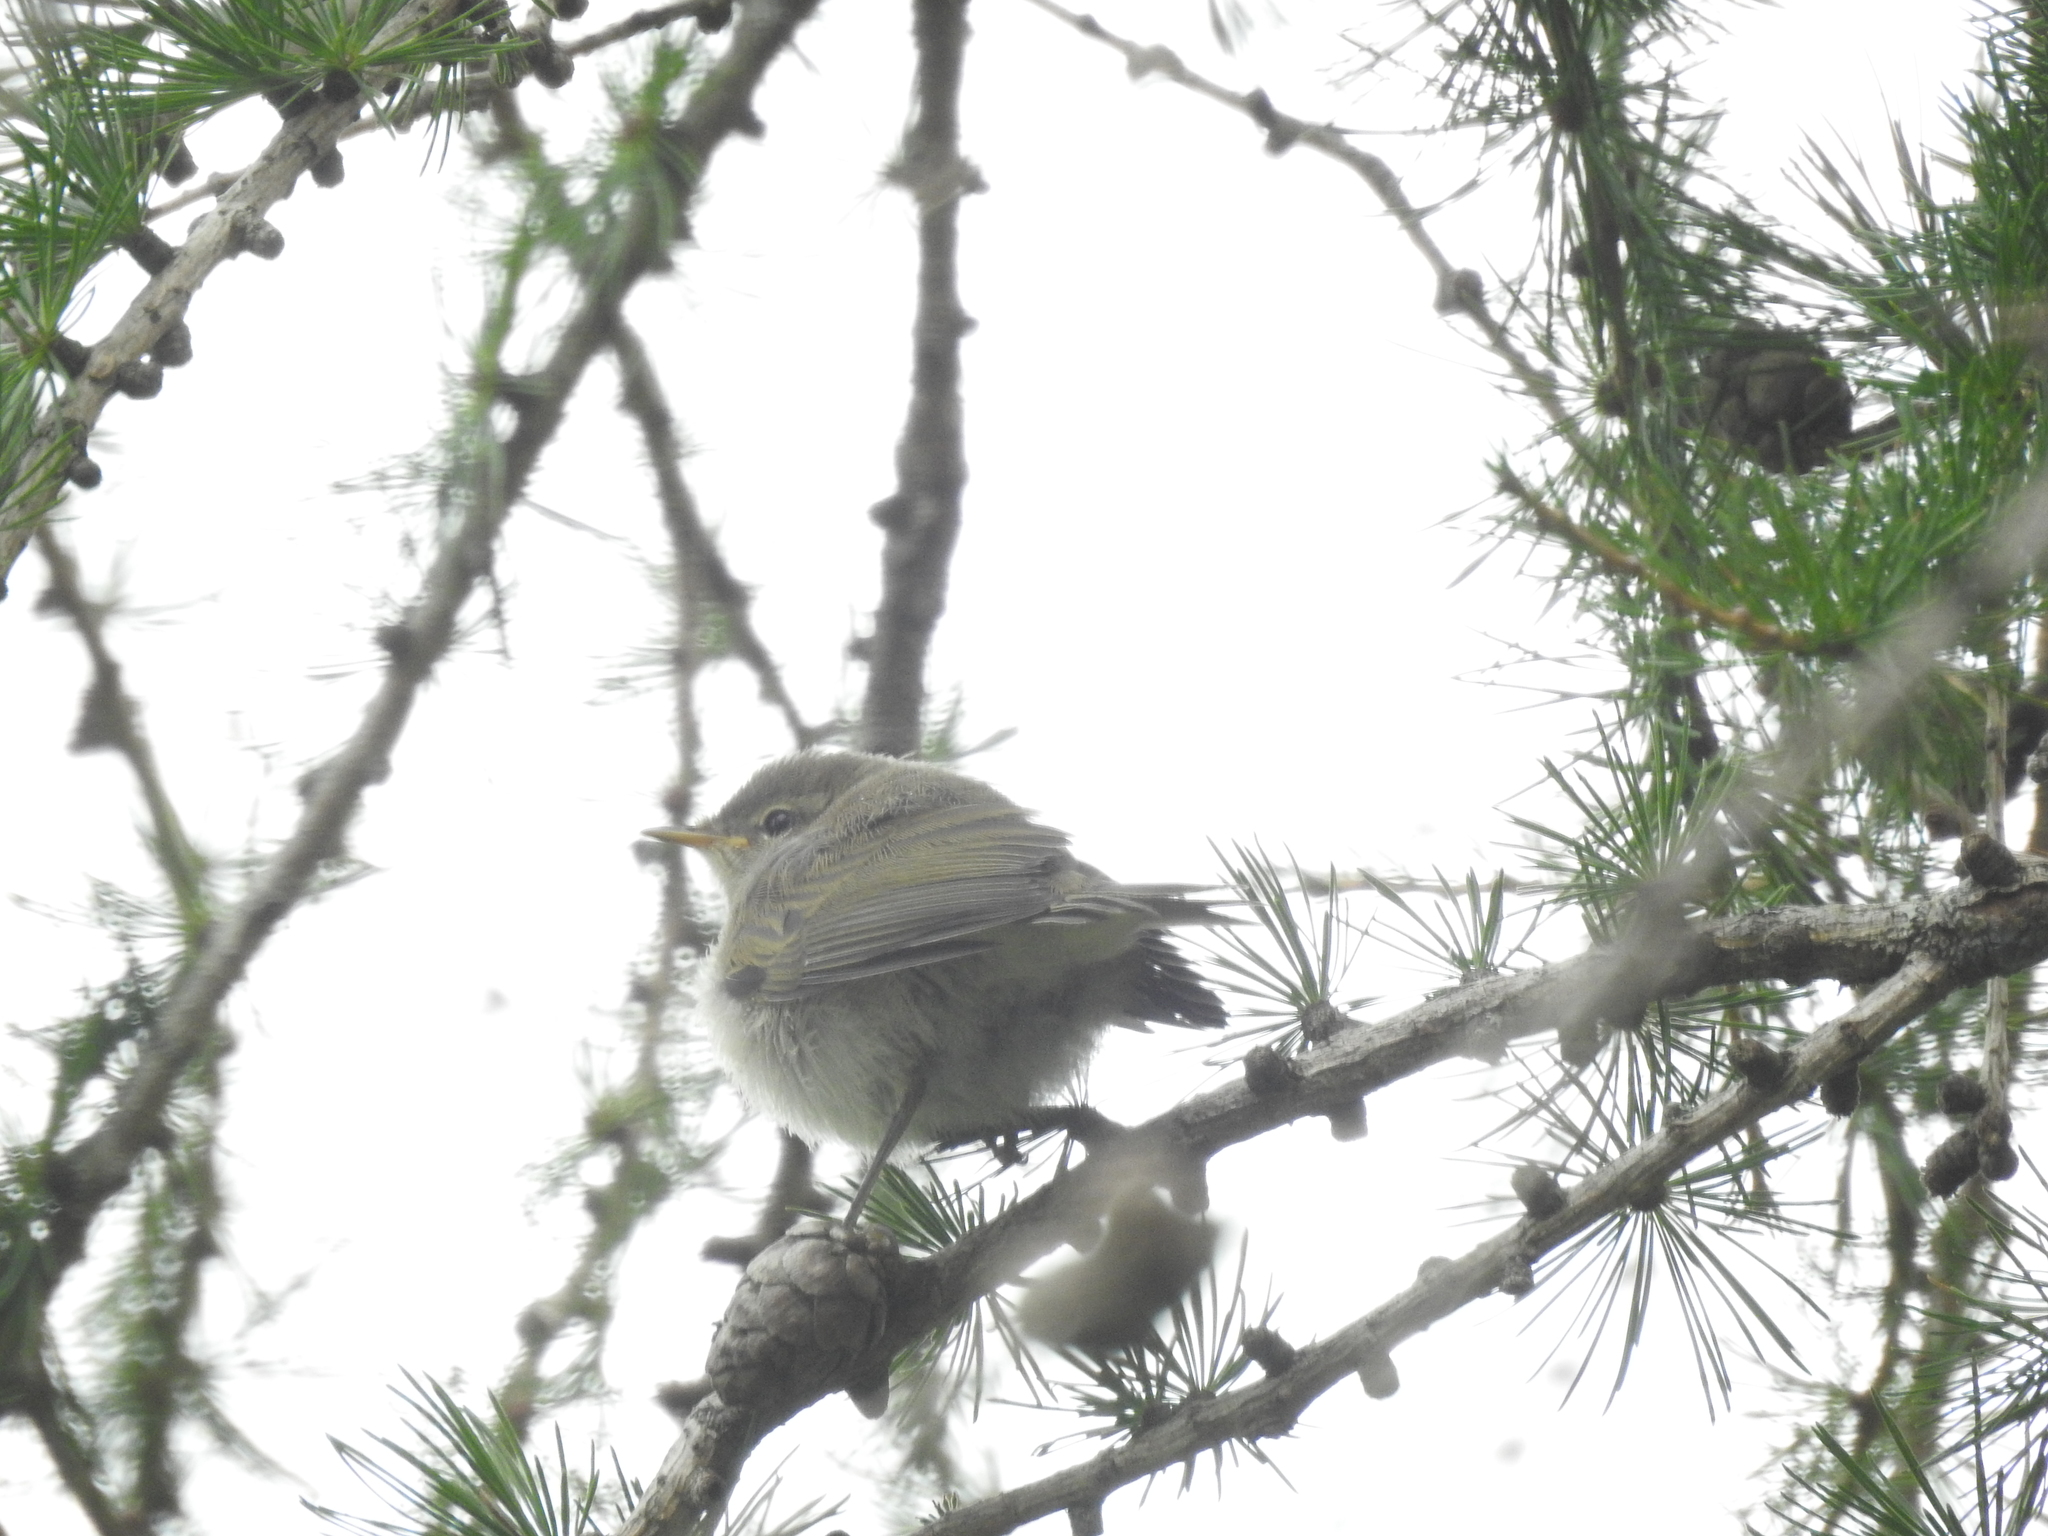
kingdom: Animalia
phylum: Chordata
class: Aves
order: Passeriformes
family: Phylloscopidae
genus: Phylloscopus
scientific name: Phylloscopus collybita
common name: Common chiffchaff
